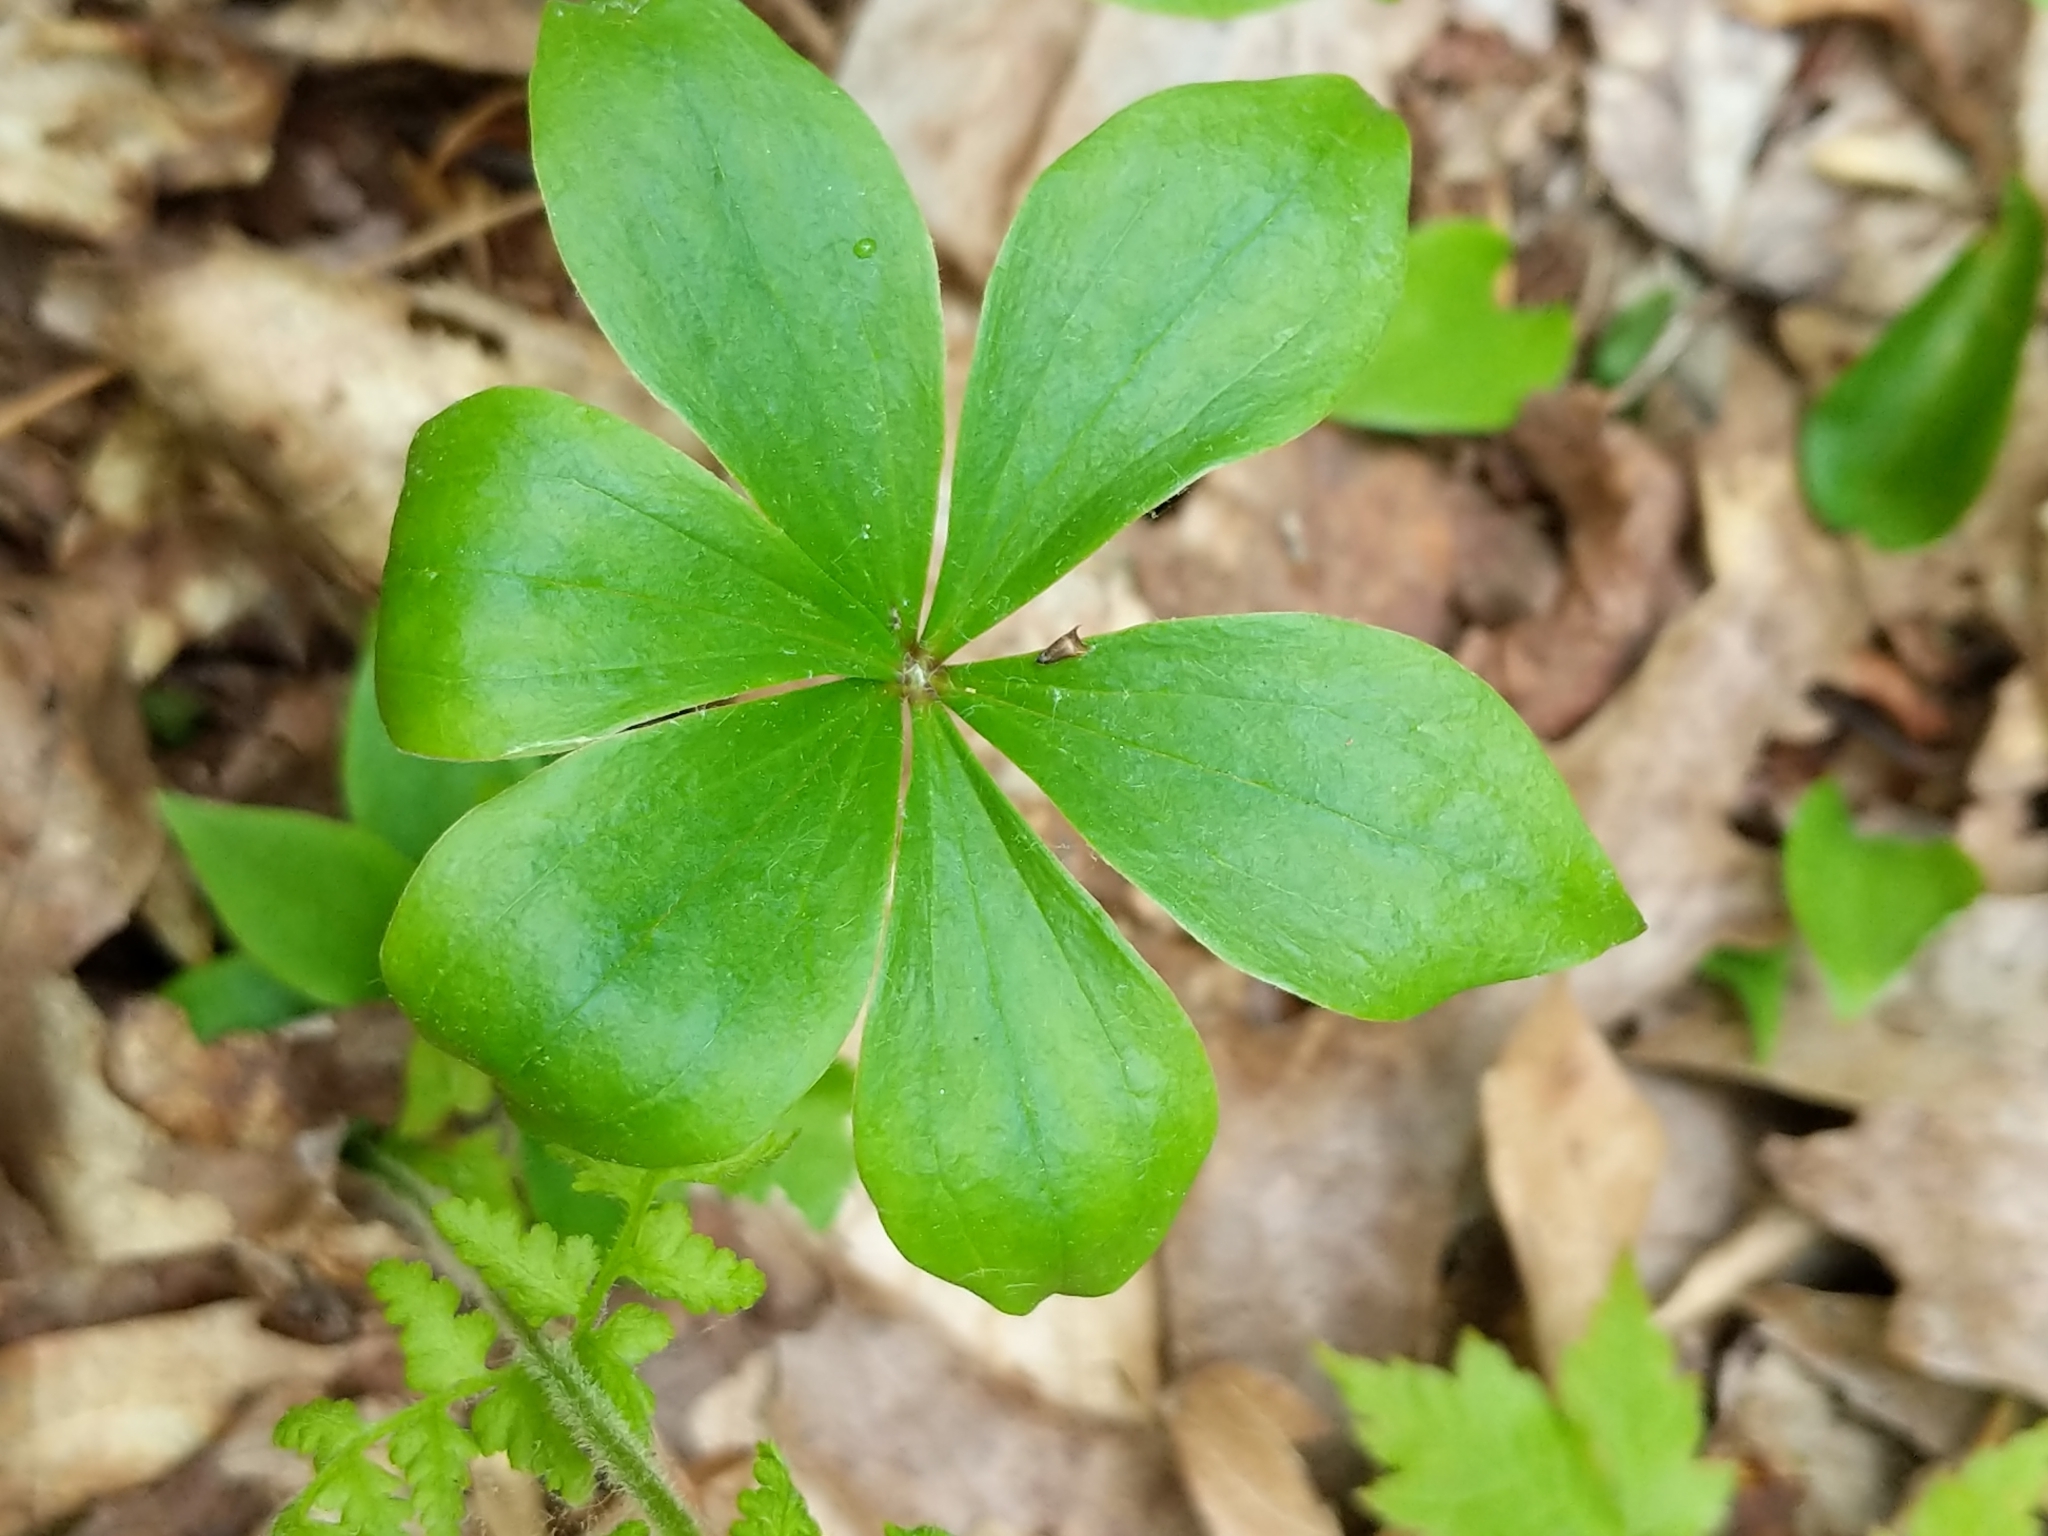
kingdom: Plantae
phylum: Tracheophyta
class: Liliopsida
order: Liliales
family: Liliaceae
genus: Medeola
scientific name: Medeola virginiana
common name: Indian cucumber-root
